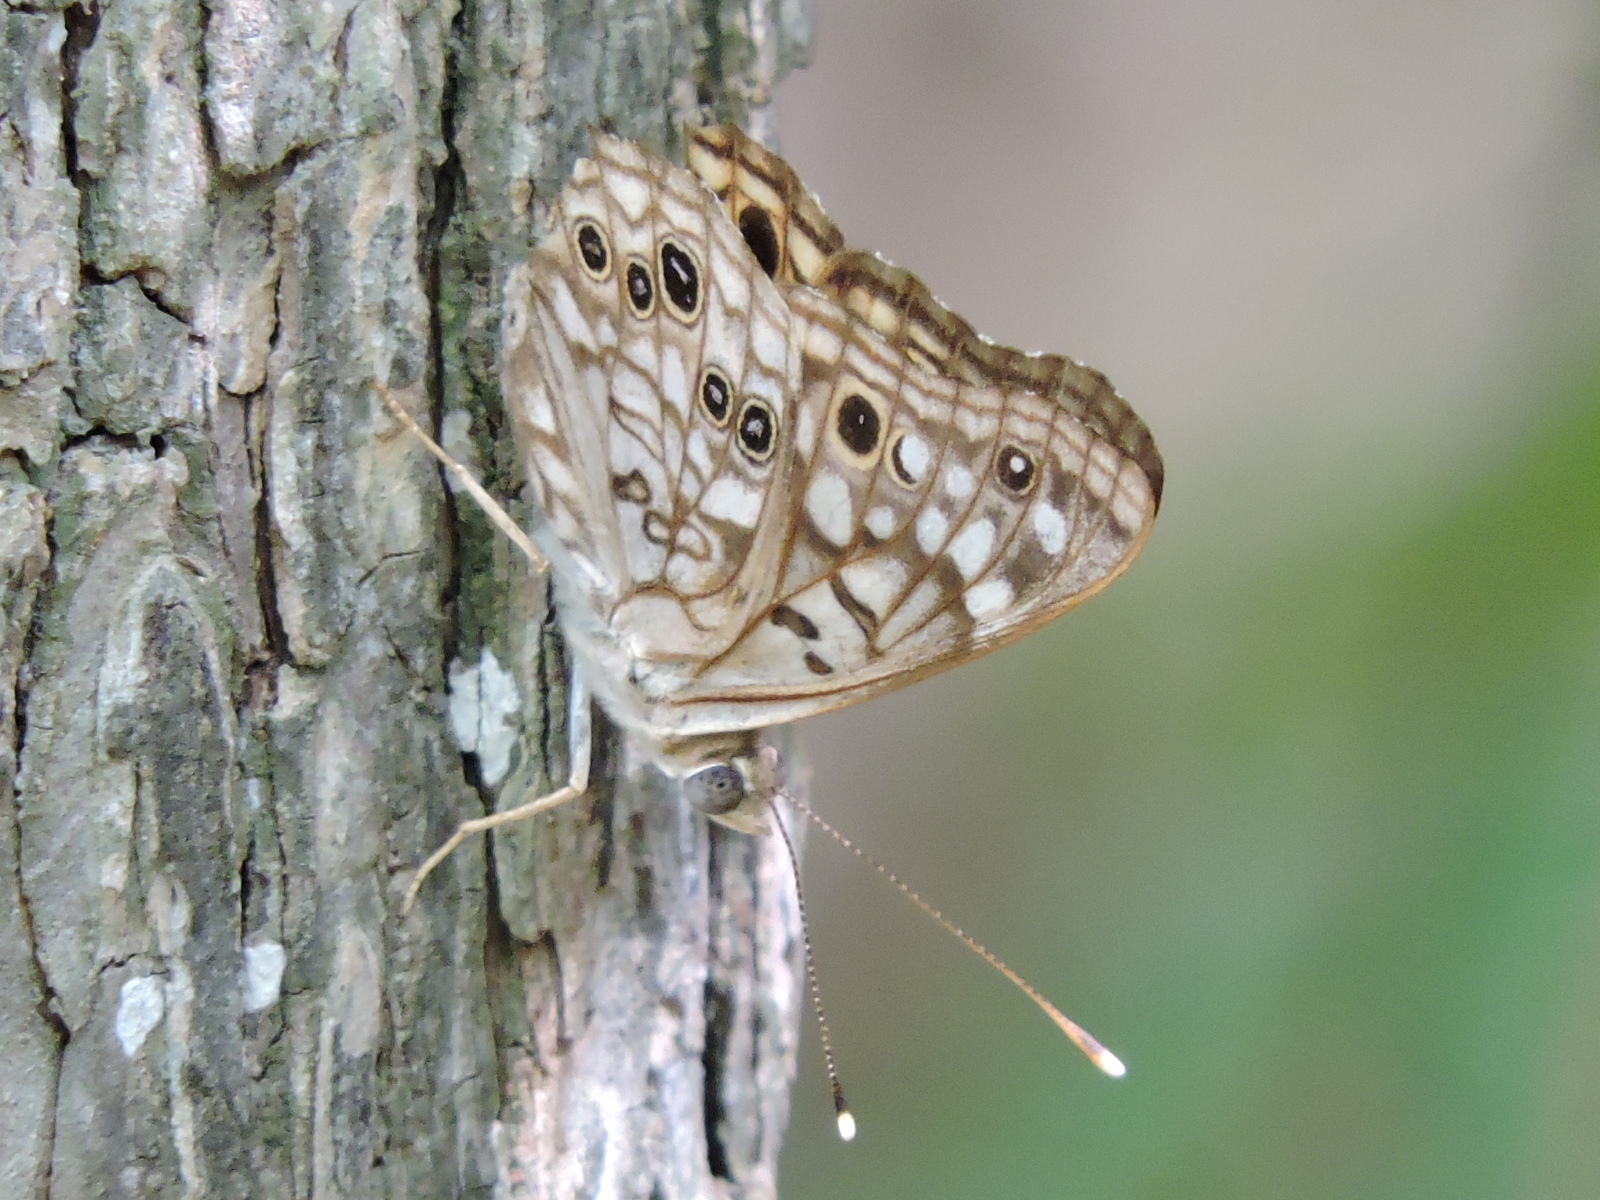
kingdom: Animalia
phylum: Arthropoda
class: Insecta
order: Lepidoptera
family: Nymphalidae
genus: Asterocampa
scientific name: Asterocampa celtis
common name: Hackberry emperor
